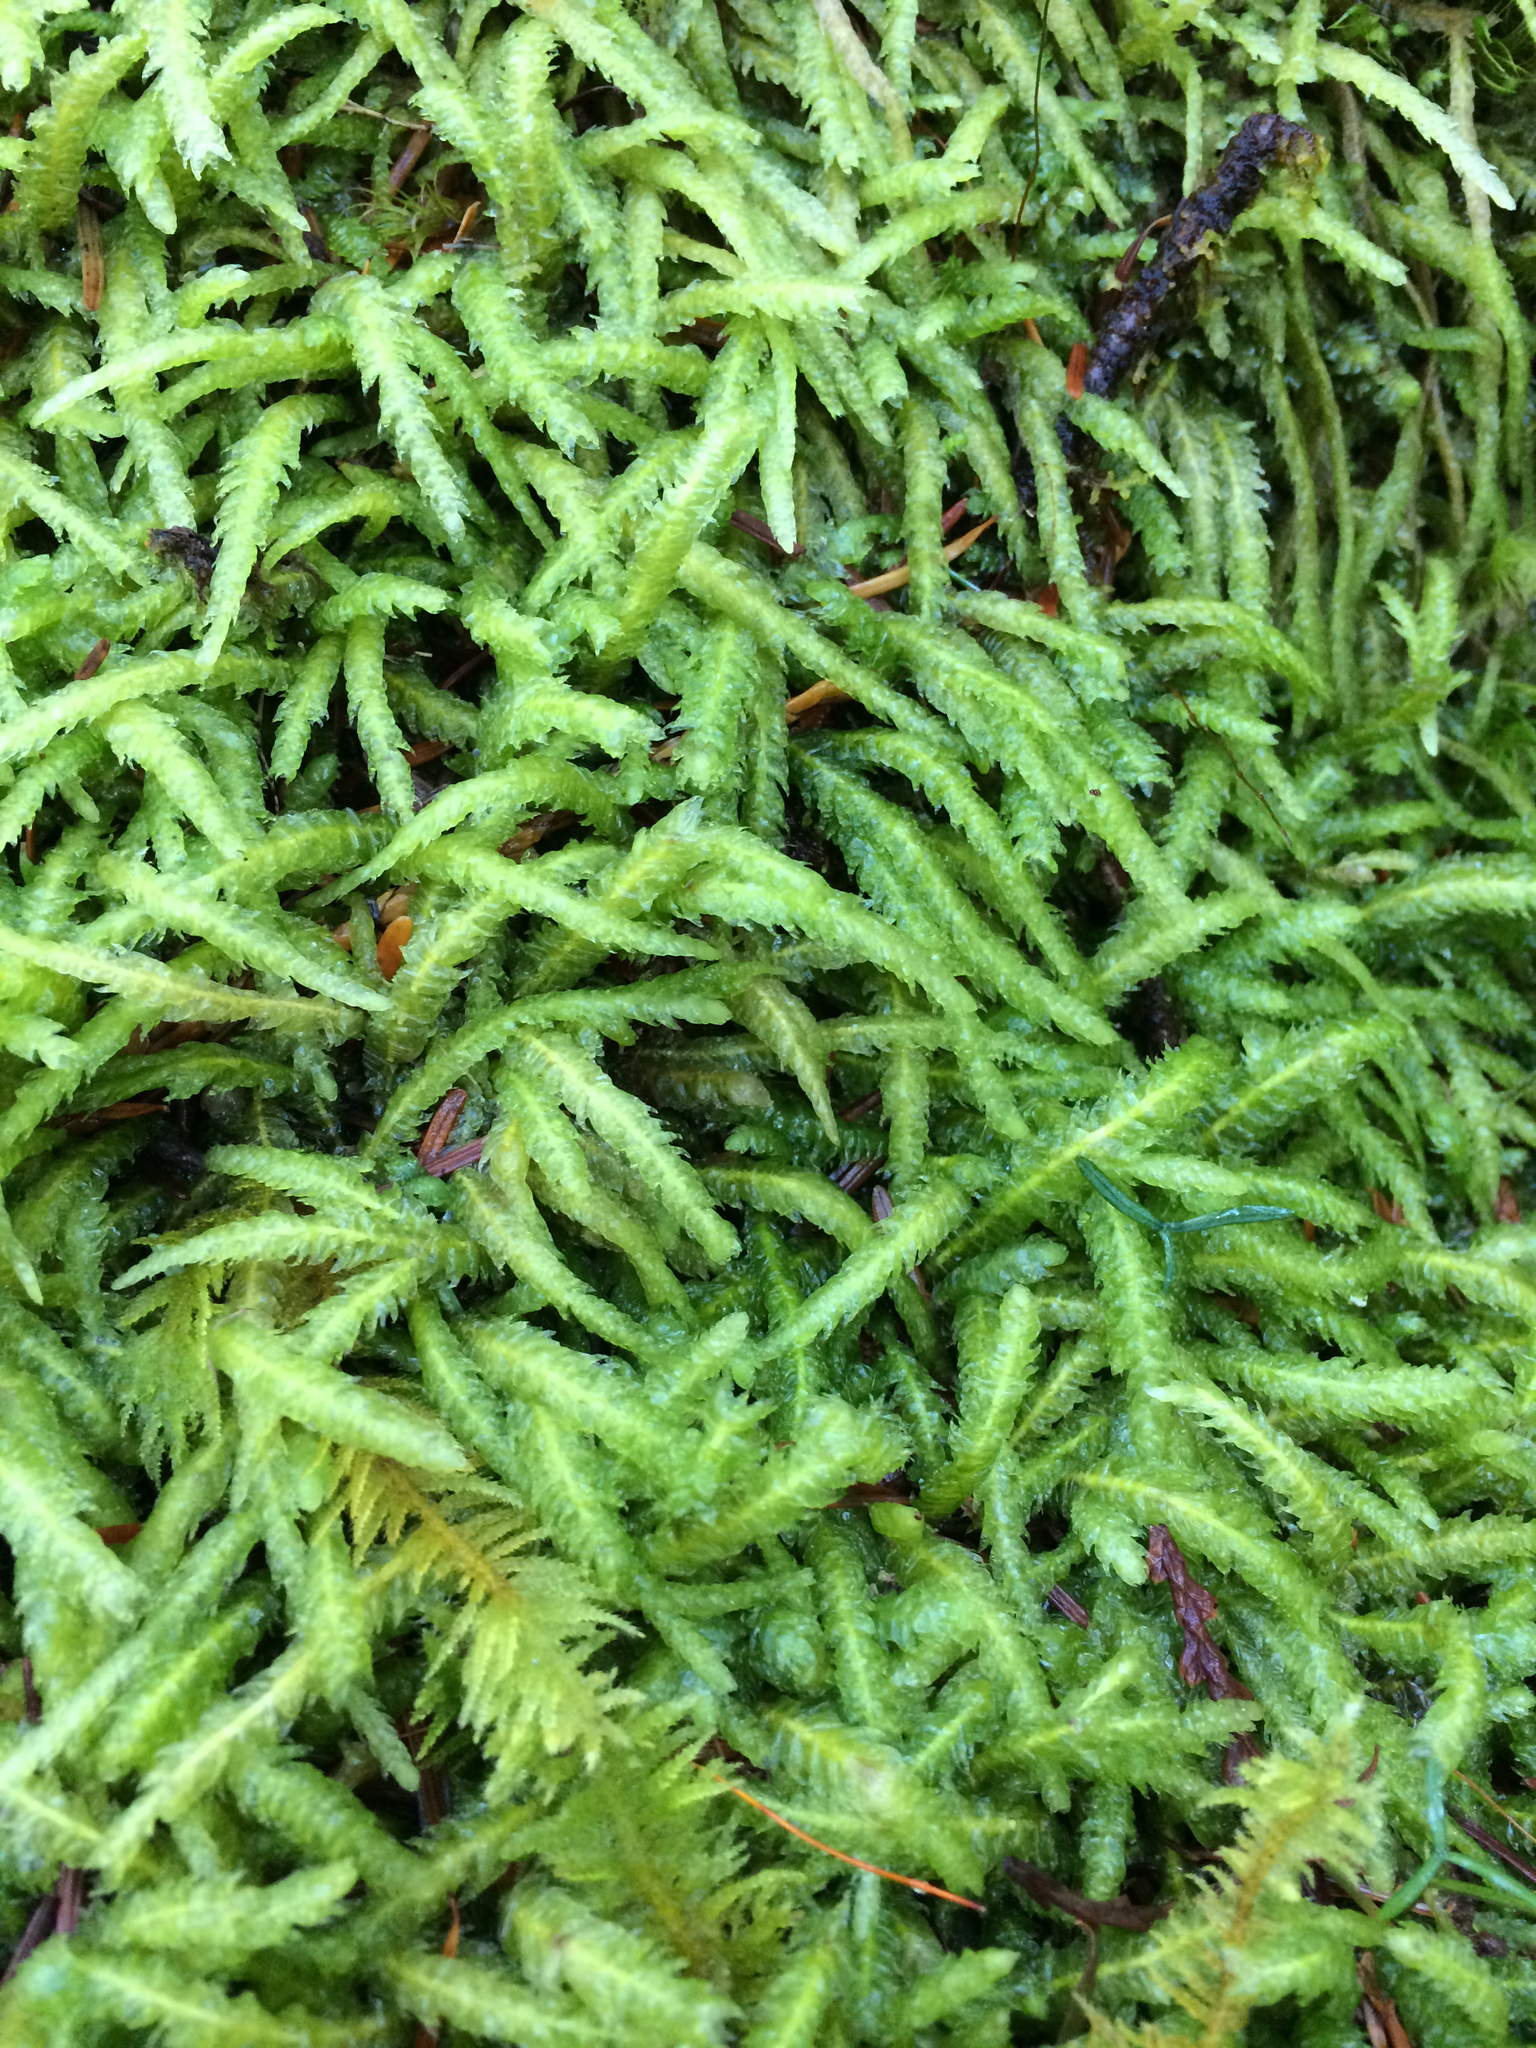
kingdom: Plantae
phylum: Bryophyta
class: Bryopsida
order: Hypnales
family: Plagiotheciaceae
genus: Plagiothecium
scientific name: Plagiothecium undulatum
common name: Waved silk-moss
